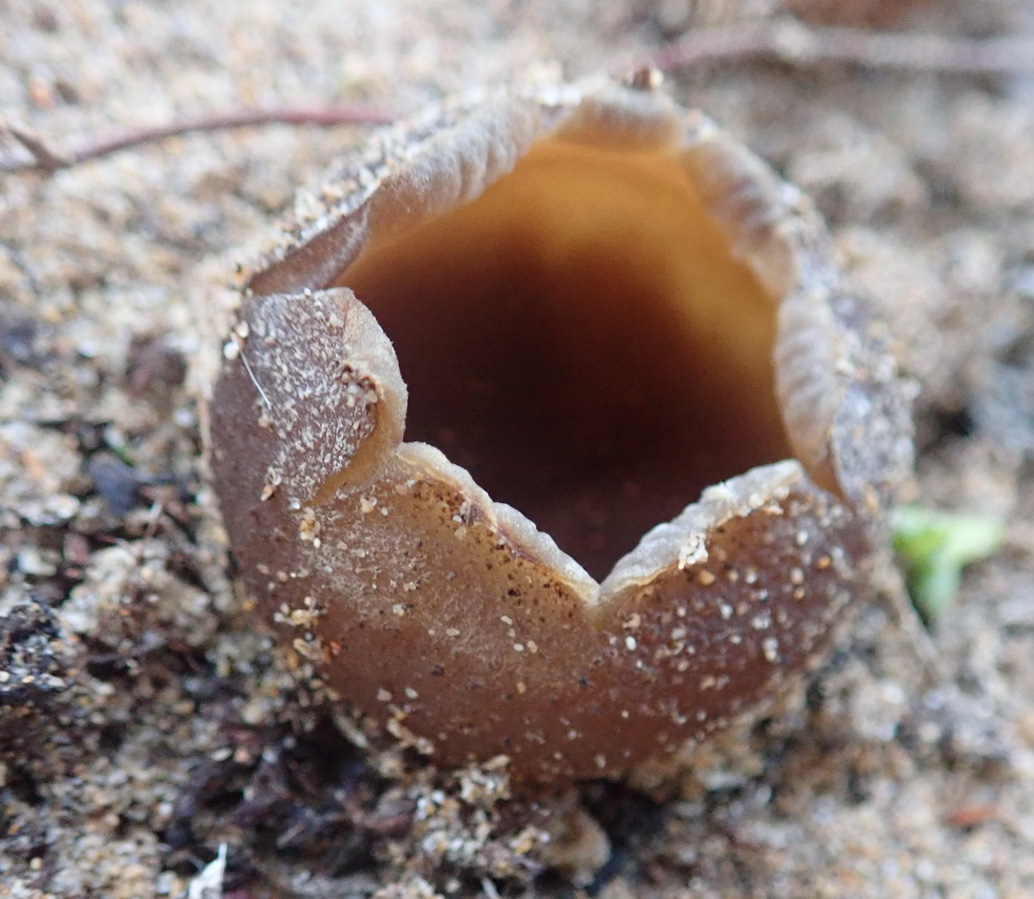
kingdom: Fungi
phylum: Ascomycota
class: Pezizomycetes
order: Pezizales
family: Pezizaceae
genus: Peziza
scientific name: Peziza ammophila
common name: Dune cup
